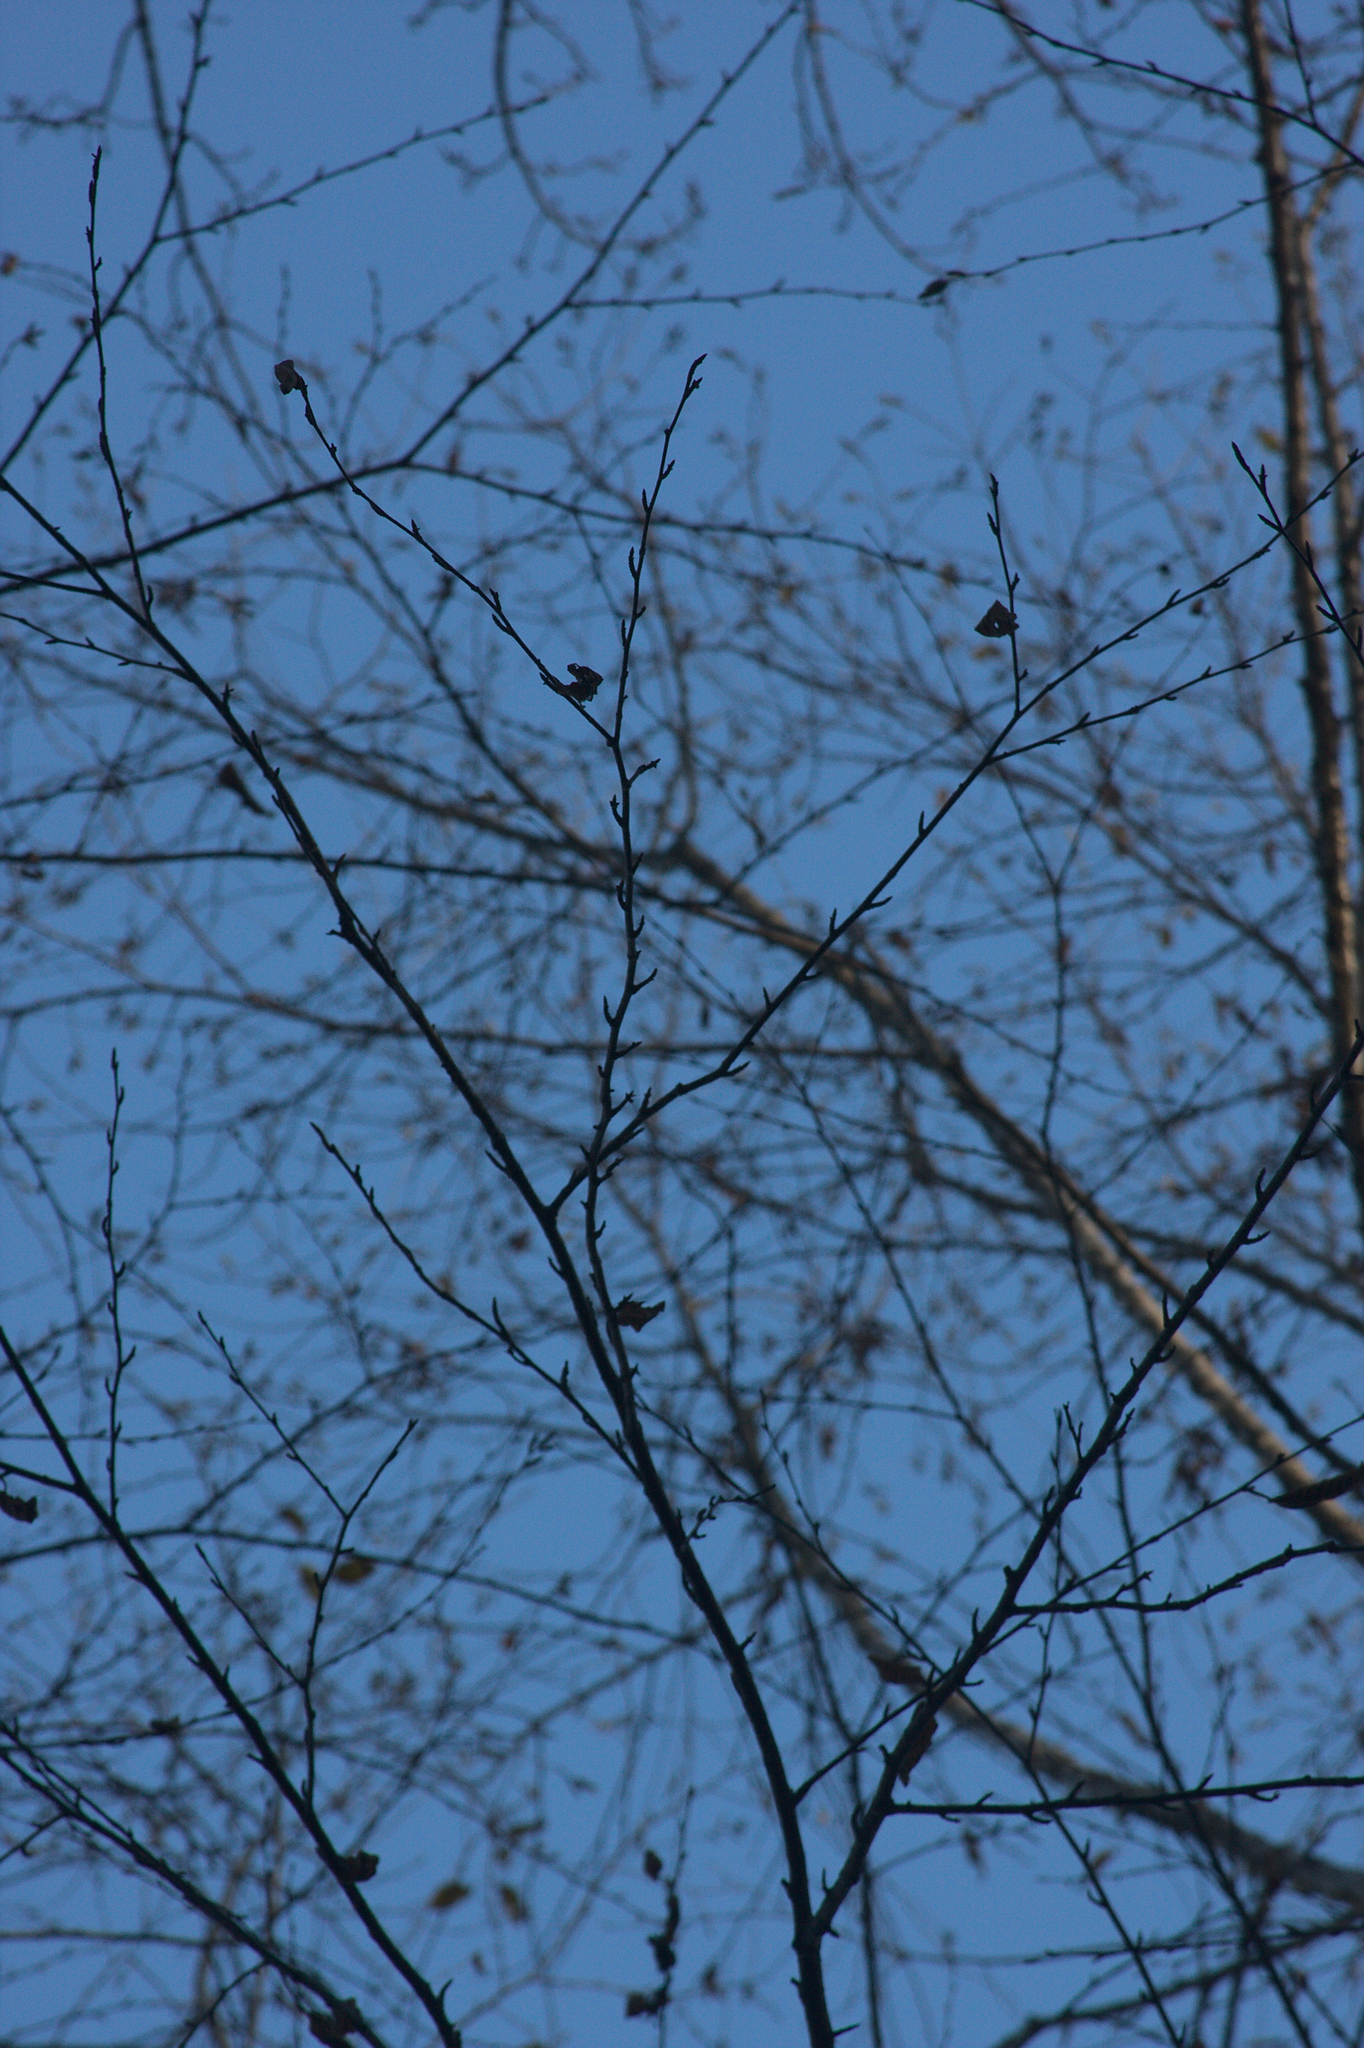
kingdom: Plantae
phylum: Tracheophyta
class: Magnoliopsida
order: Fagales
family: Betulaceae
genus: Betula
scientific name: Betula alleghaniensis
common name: Yellow birch
